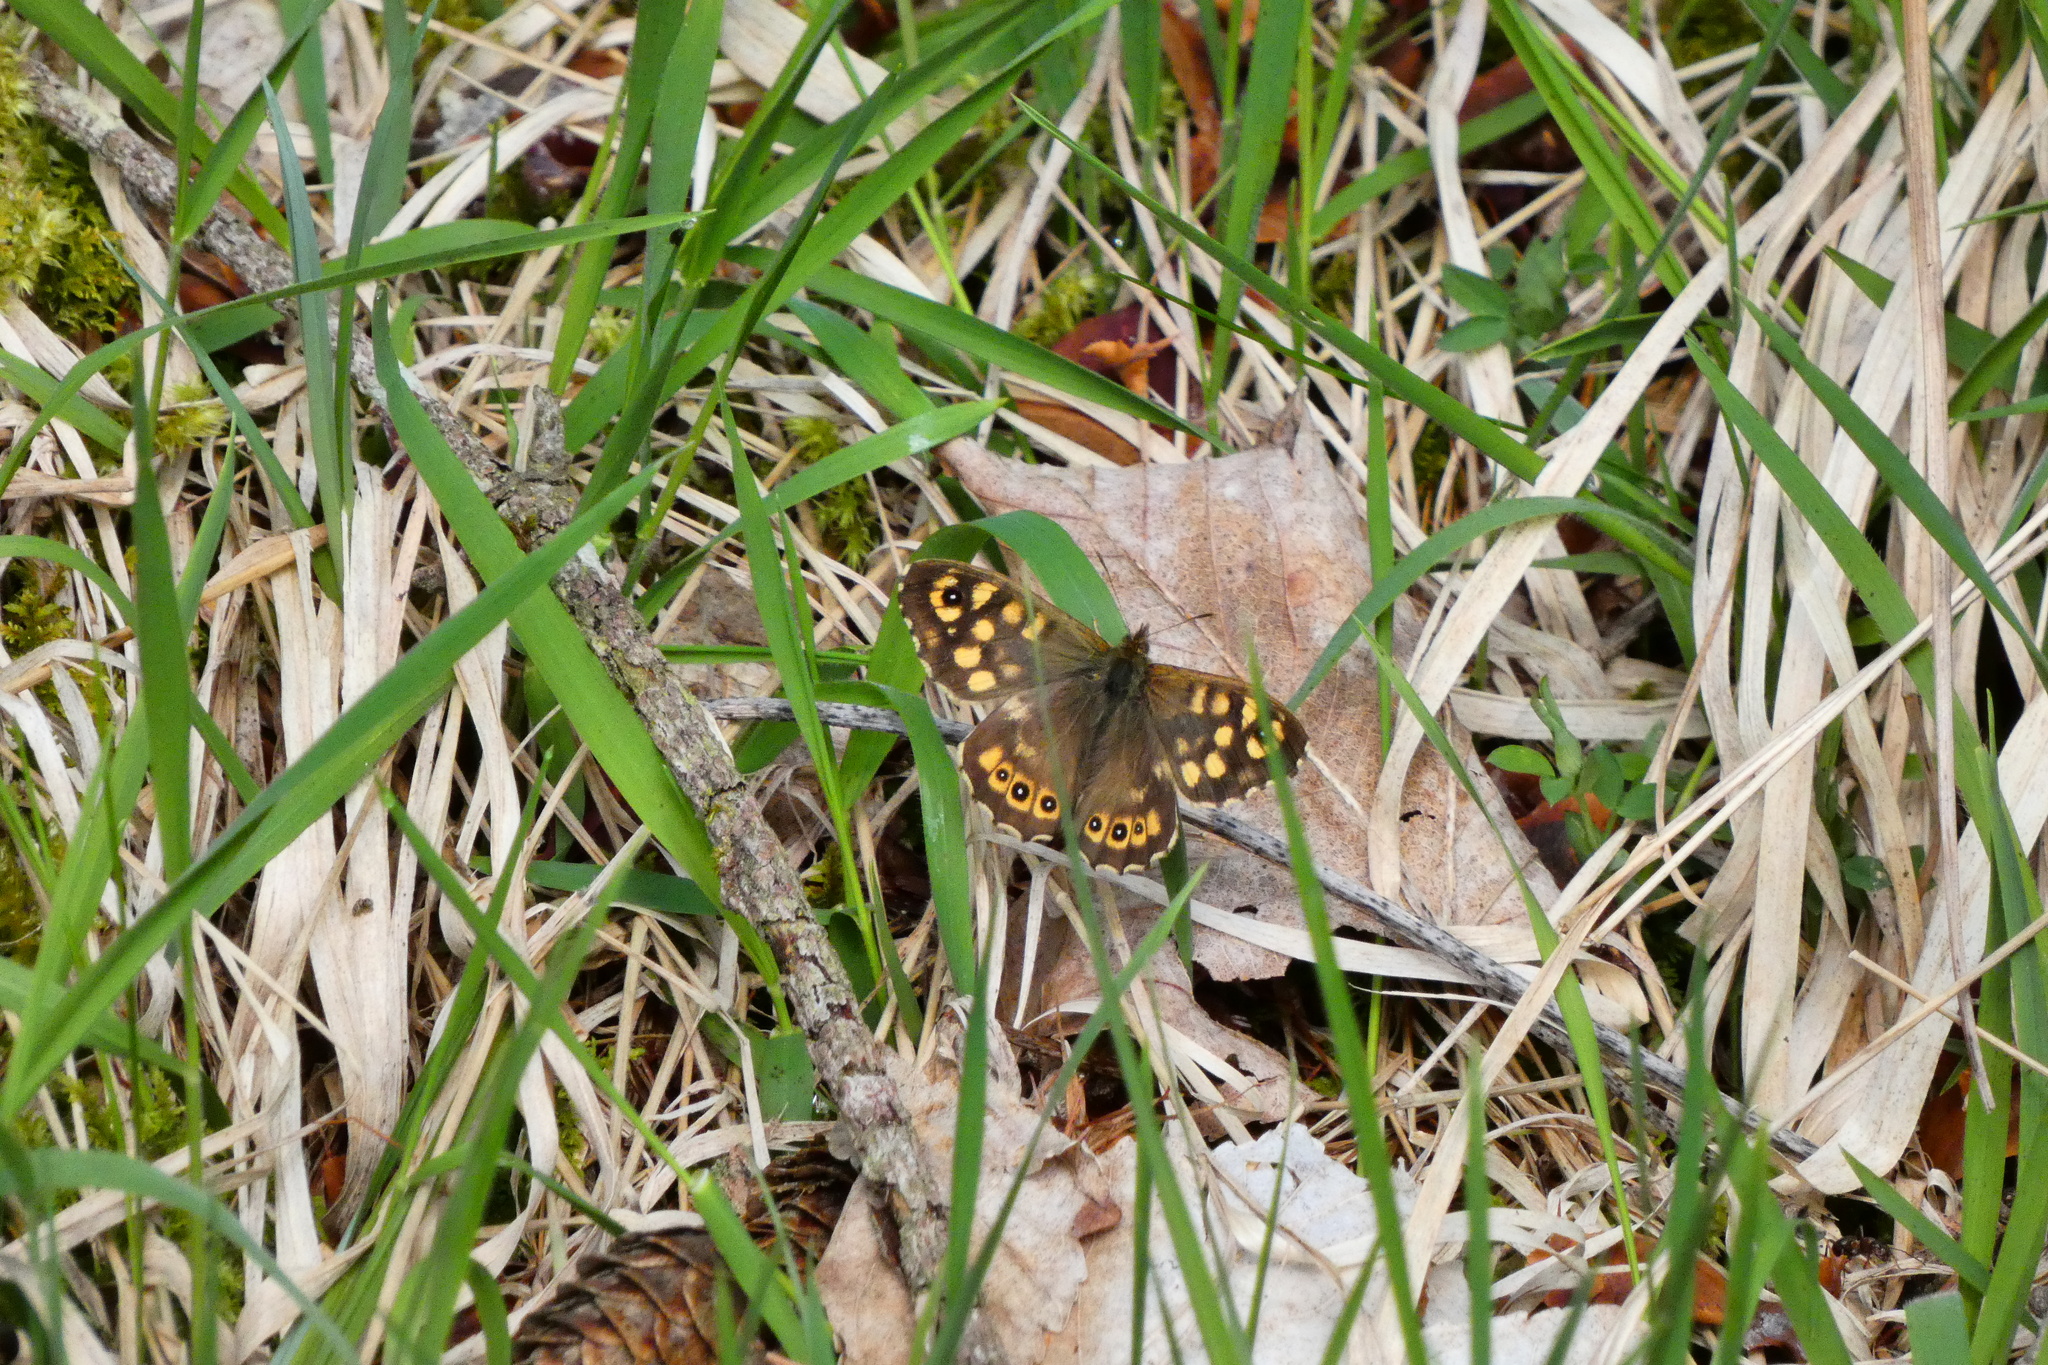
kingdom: Animalia
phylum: Arthropoda
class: Insecta
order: Lepidoptera
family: Nymphalidae
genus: Pararge
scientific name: Pararge aegeria
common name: Speckled wood
